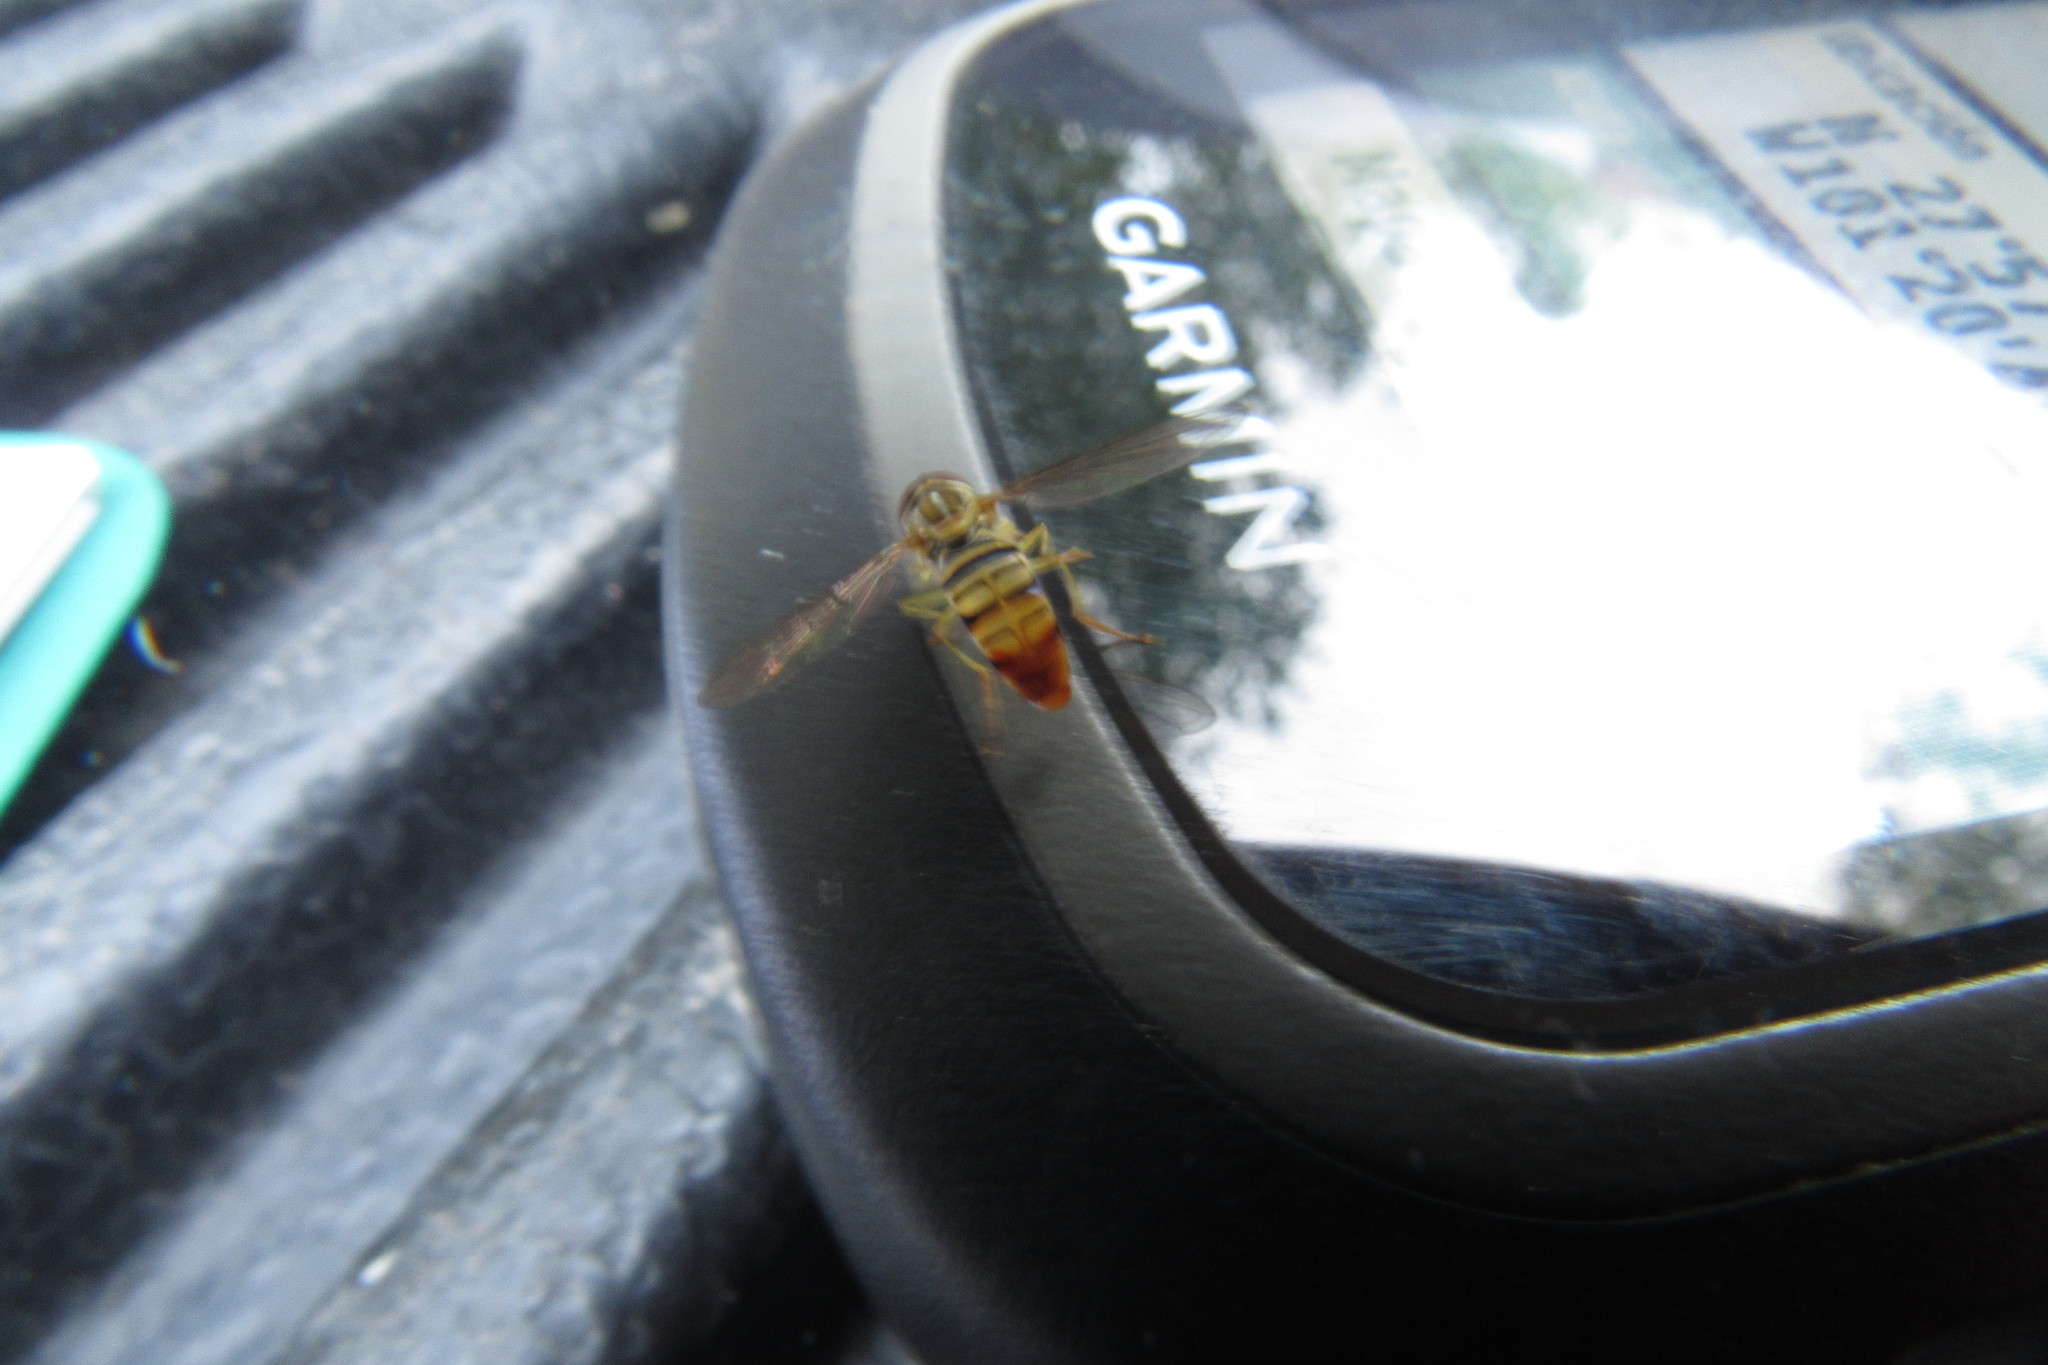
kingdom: Animalia
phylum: Arthropoda
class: Insecta
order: Diptera
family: Syrphidae
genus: Toxomerus
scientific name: Toxomerus politus
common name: Maize calligrapher
